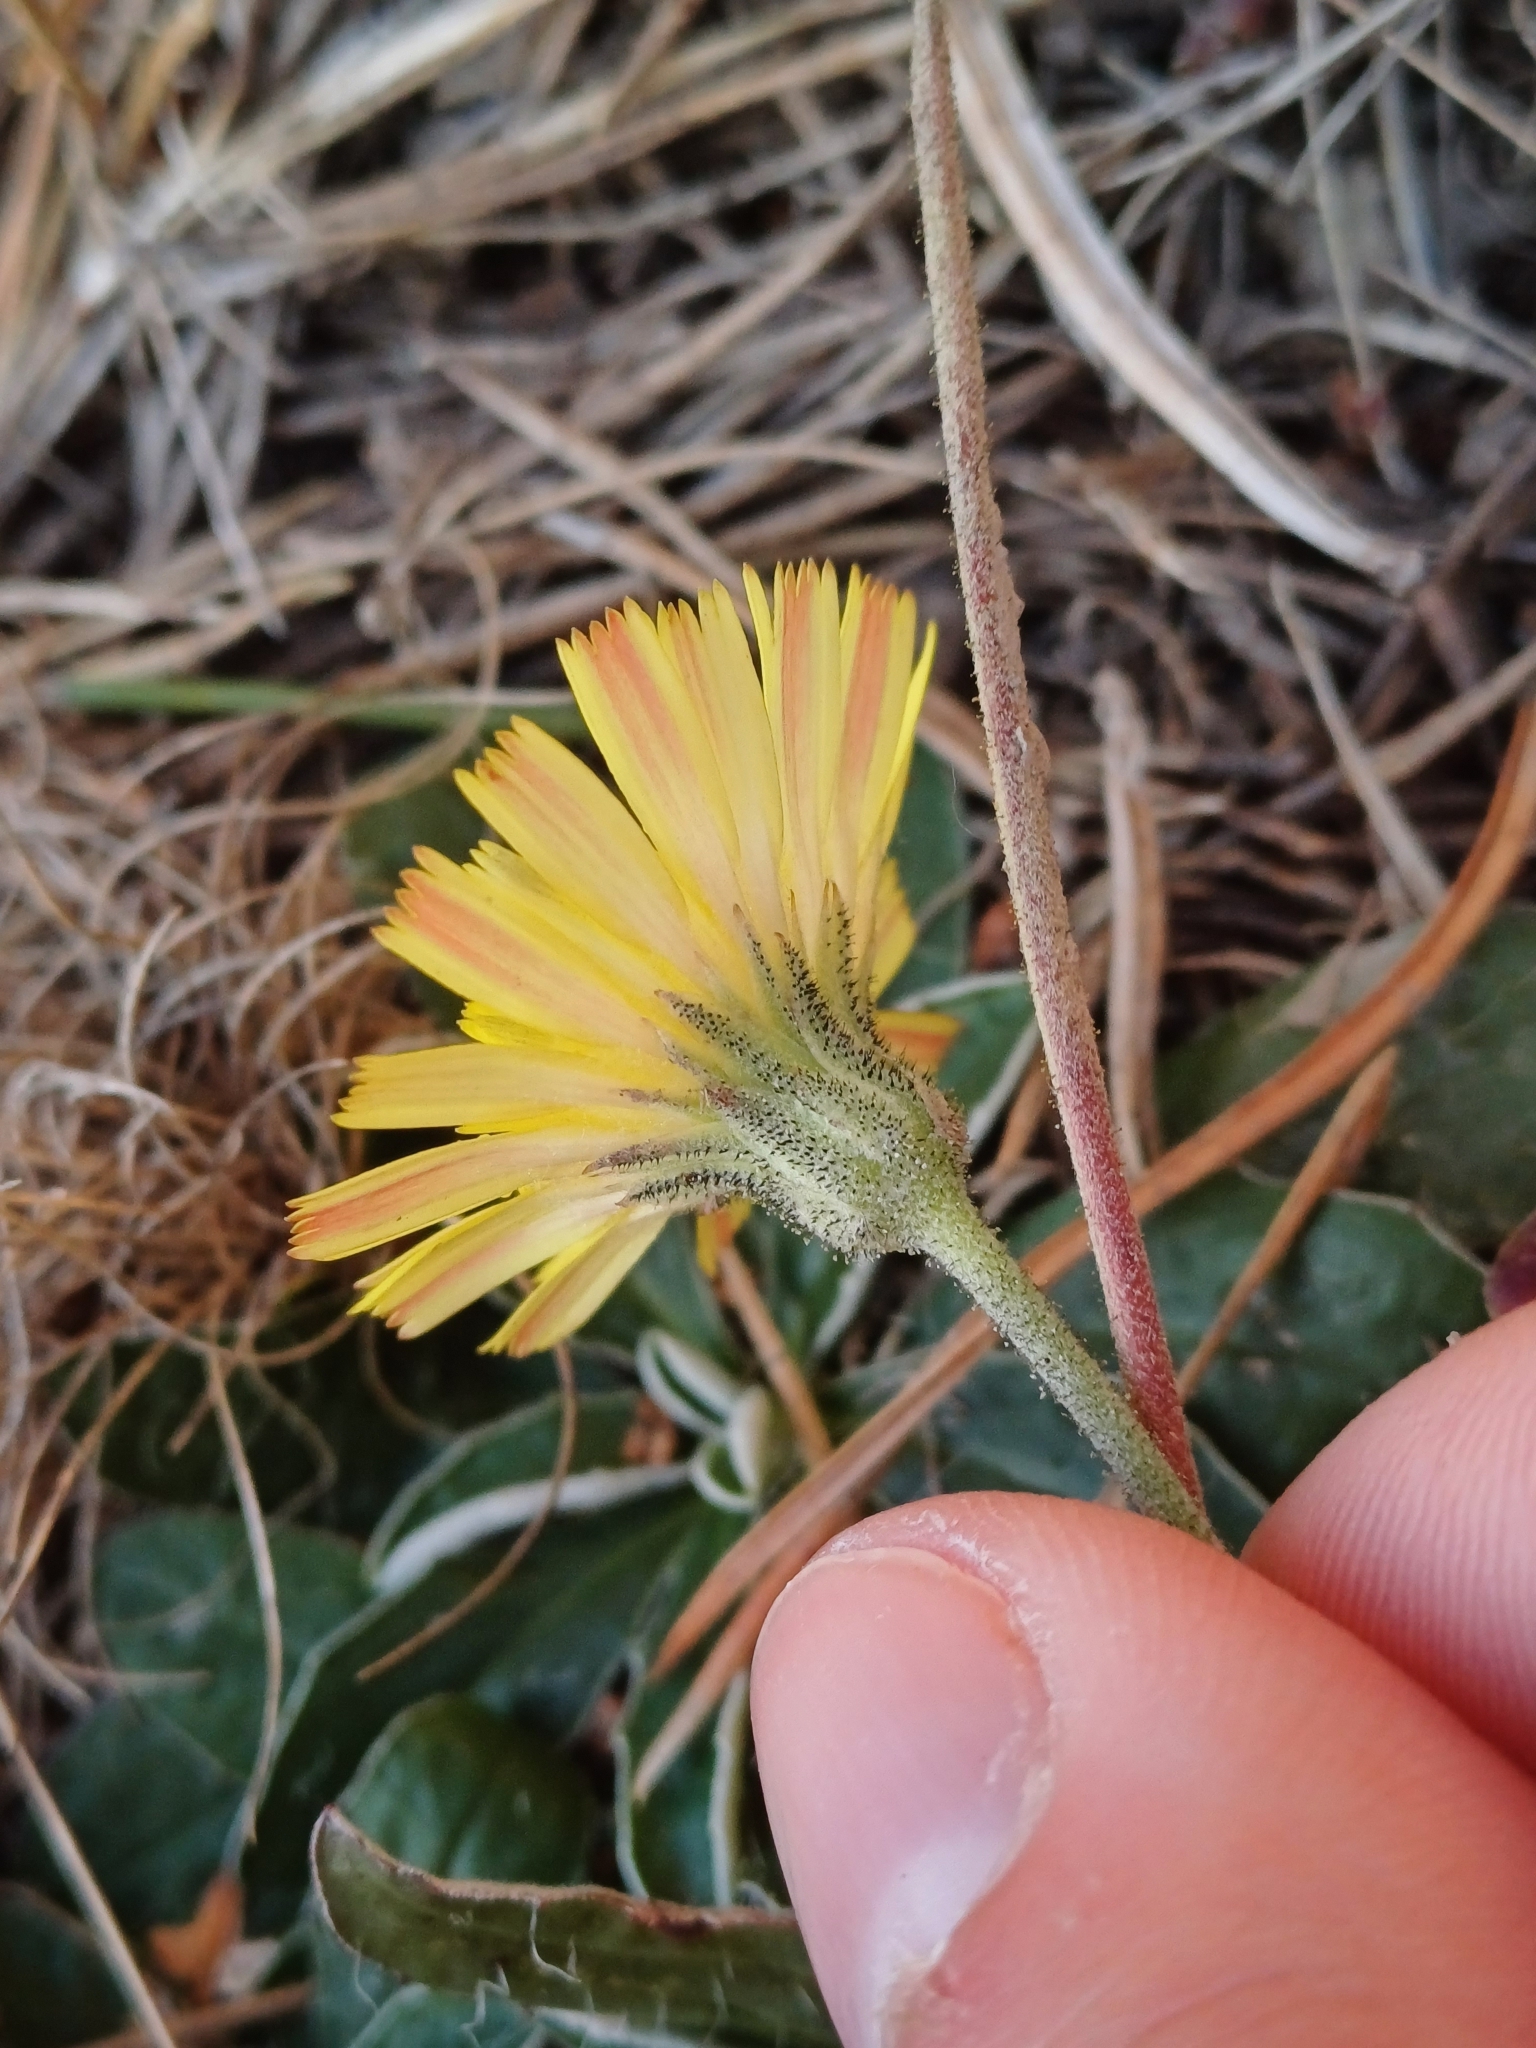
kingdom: Plantae
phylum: Tracheophyta
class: Magnoliopsida
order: Asterales
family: Asteraceae
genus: Pilosella
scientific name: Pilosella officinarum
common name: Mouse-ear hawkweed
